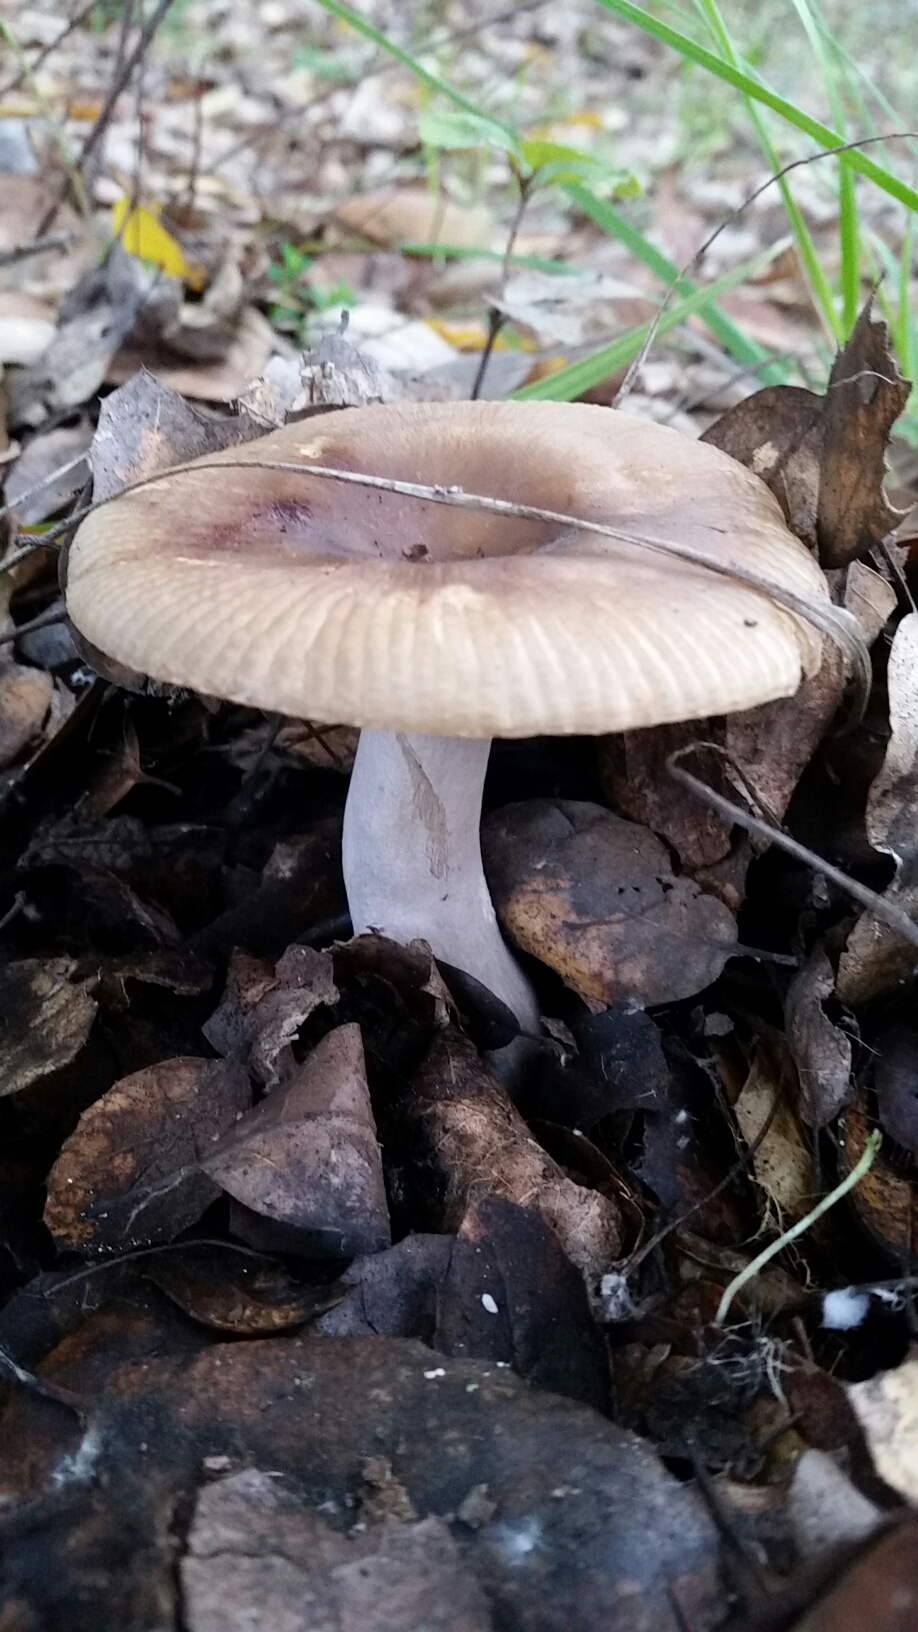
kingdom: Fungi
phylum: Basidiomycota
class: Agaricomycetes
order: Russulales
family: Russulaceae
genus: Russula
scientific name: Russula cerolens
